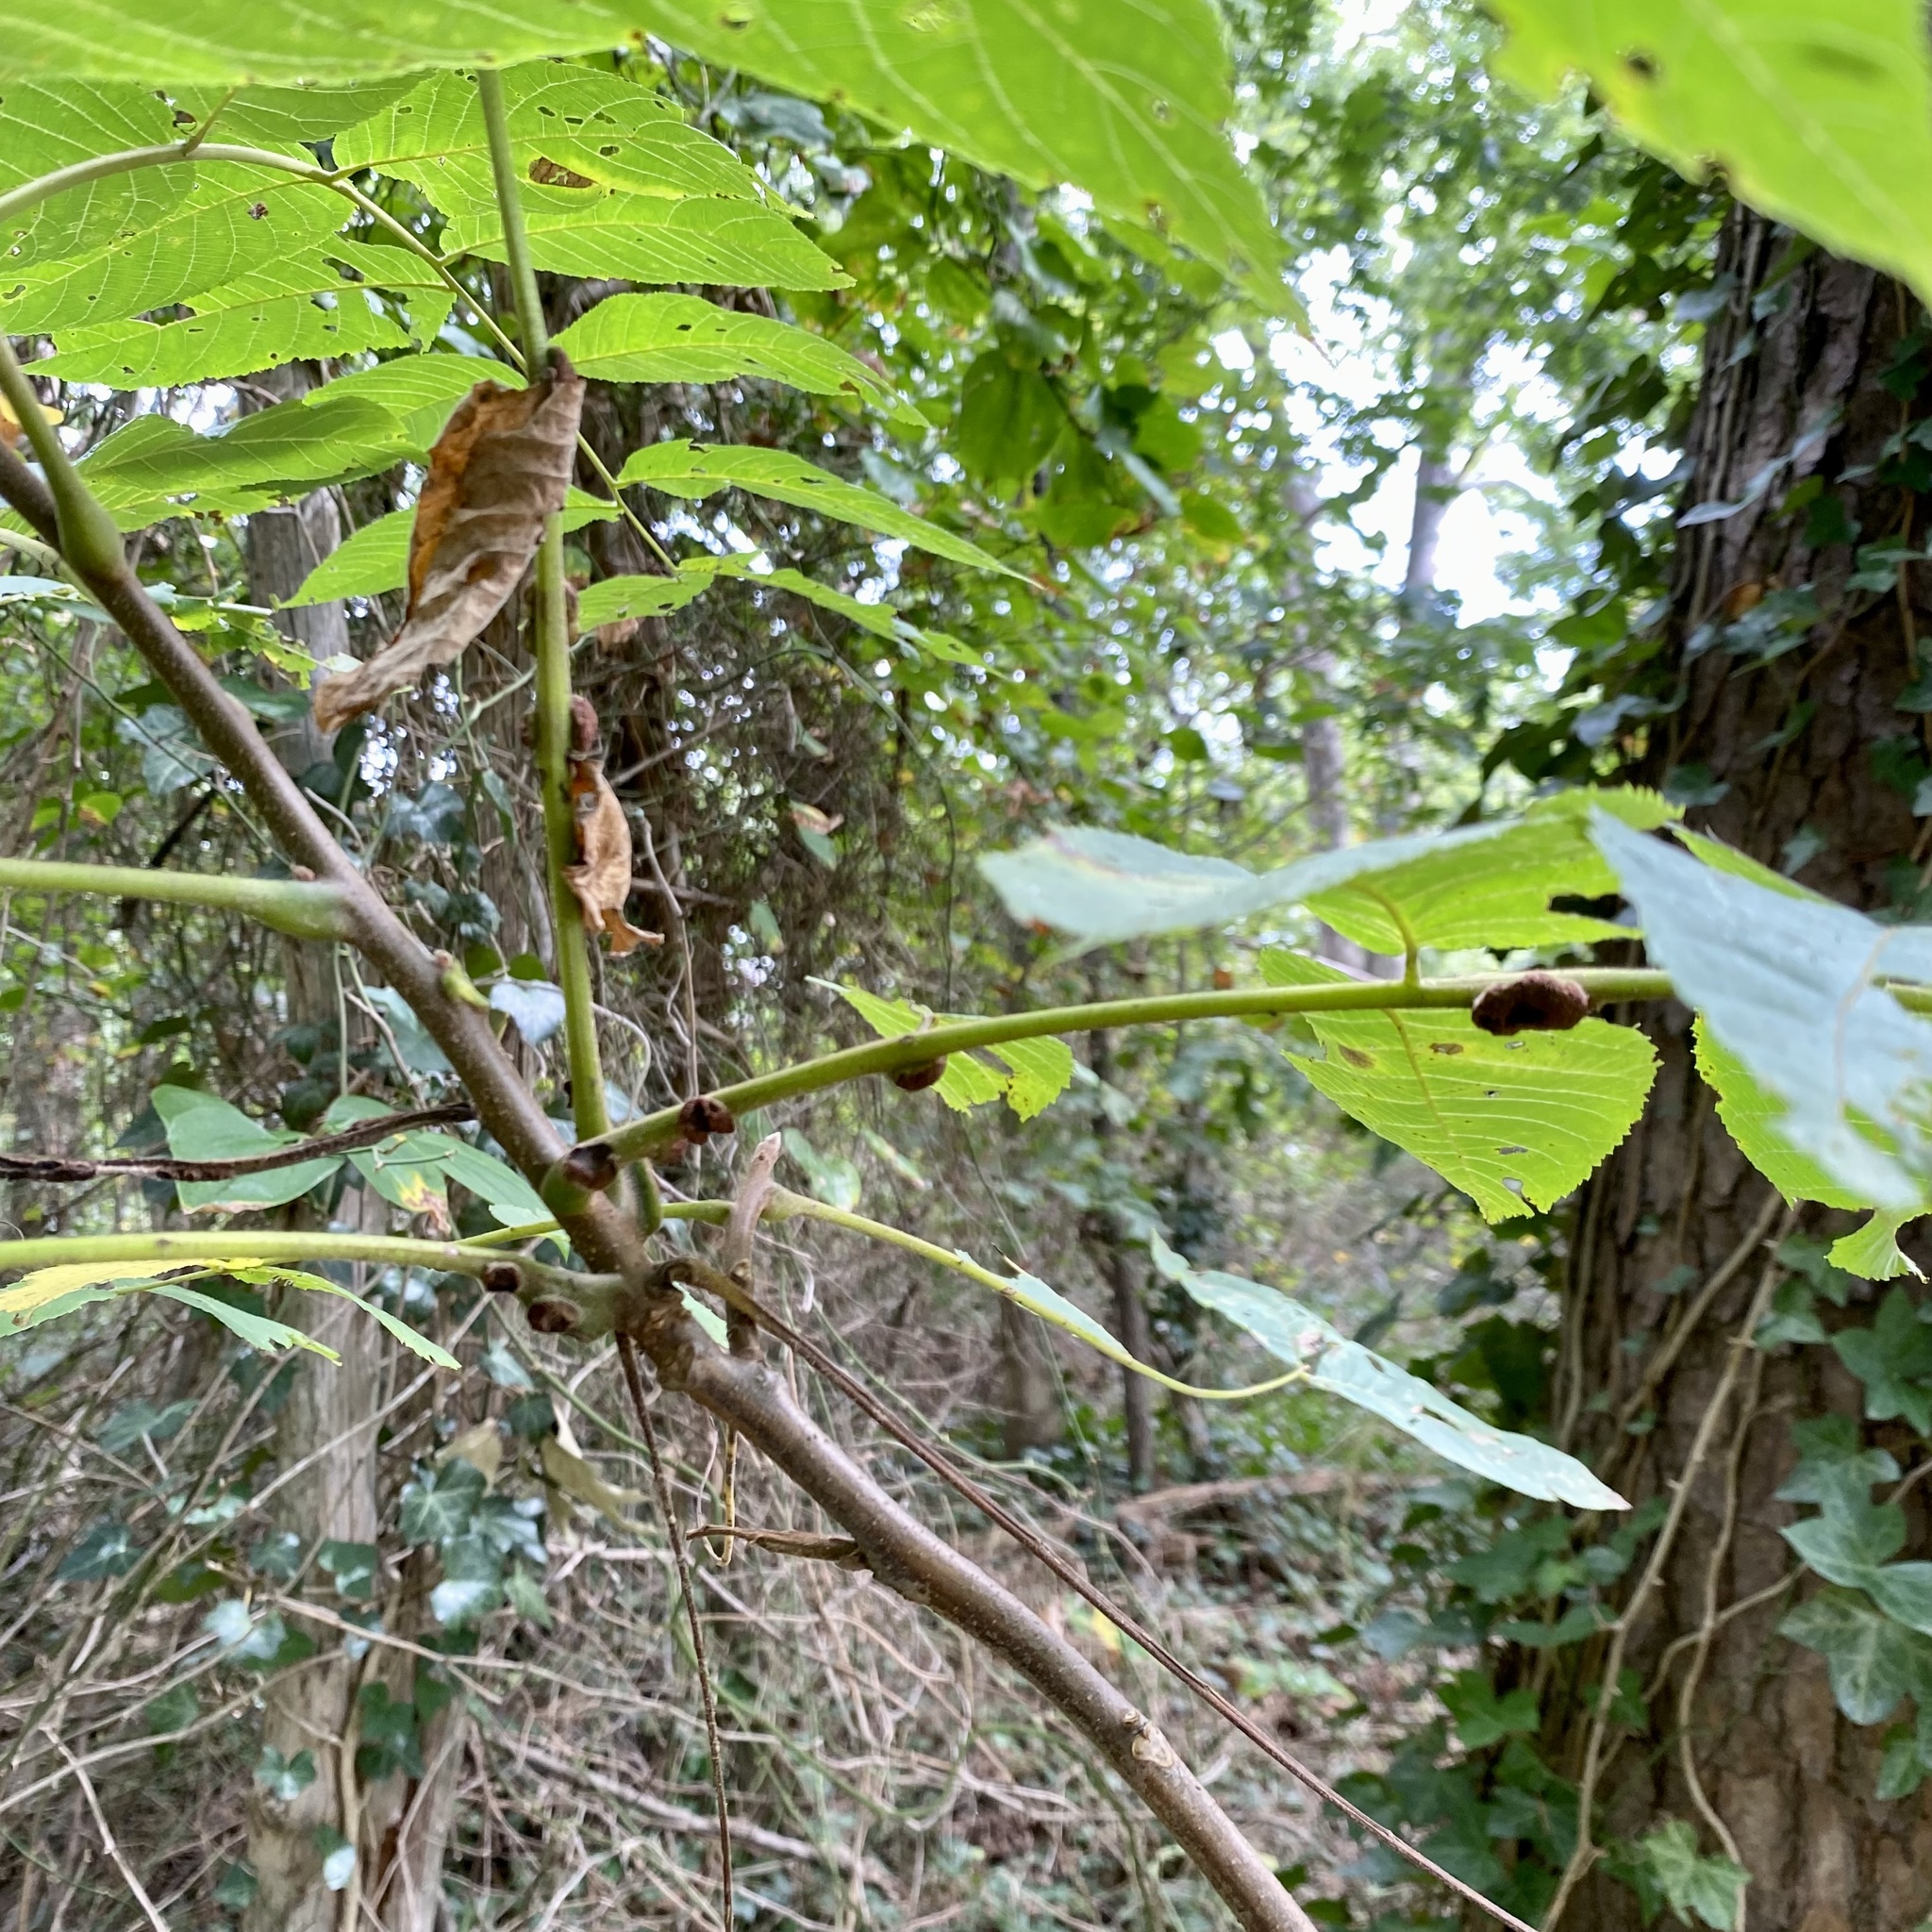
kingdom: Animalia
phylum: Arthropoda
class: Arachnida
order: Trombidiformes
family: Eriophyidae
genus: Aceria
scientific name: Aceria
